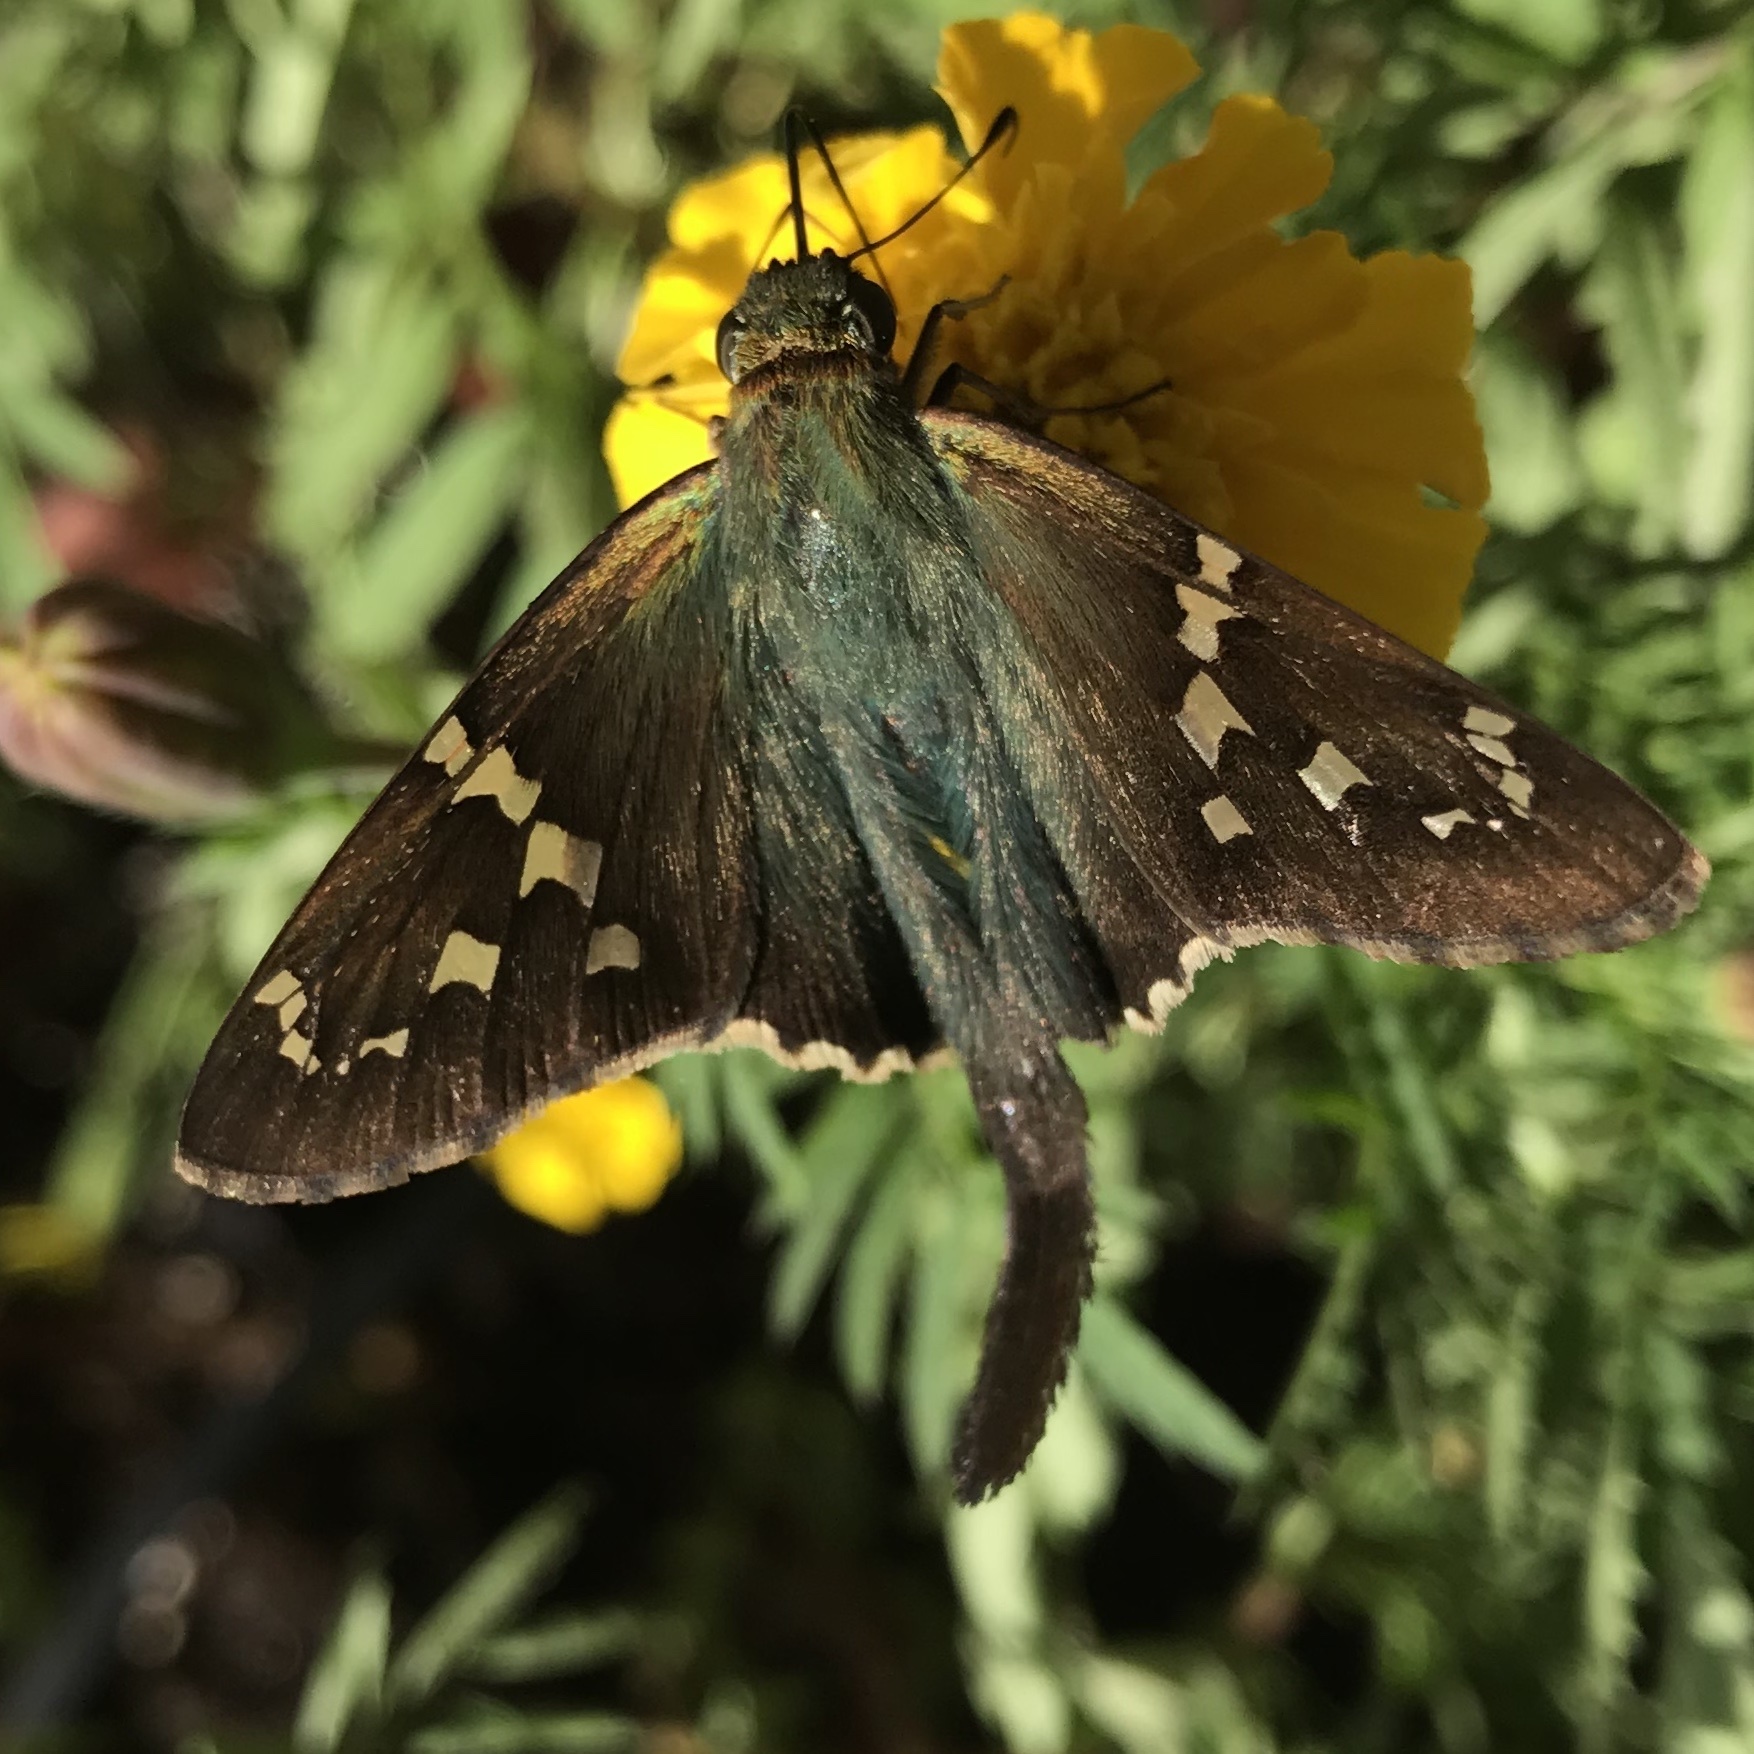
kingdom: Animalia
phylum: Arthropoda
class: Insecta
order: Lepidoptera
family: Hesperiidae
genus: Urbanus
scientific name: Urbanus proteus
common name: Long-tailed skipper
